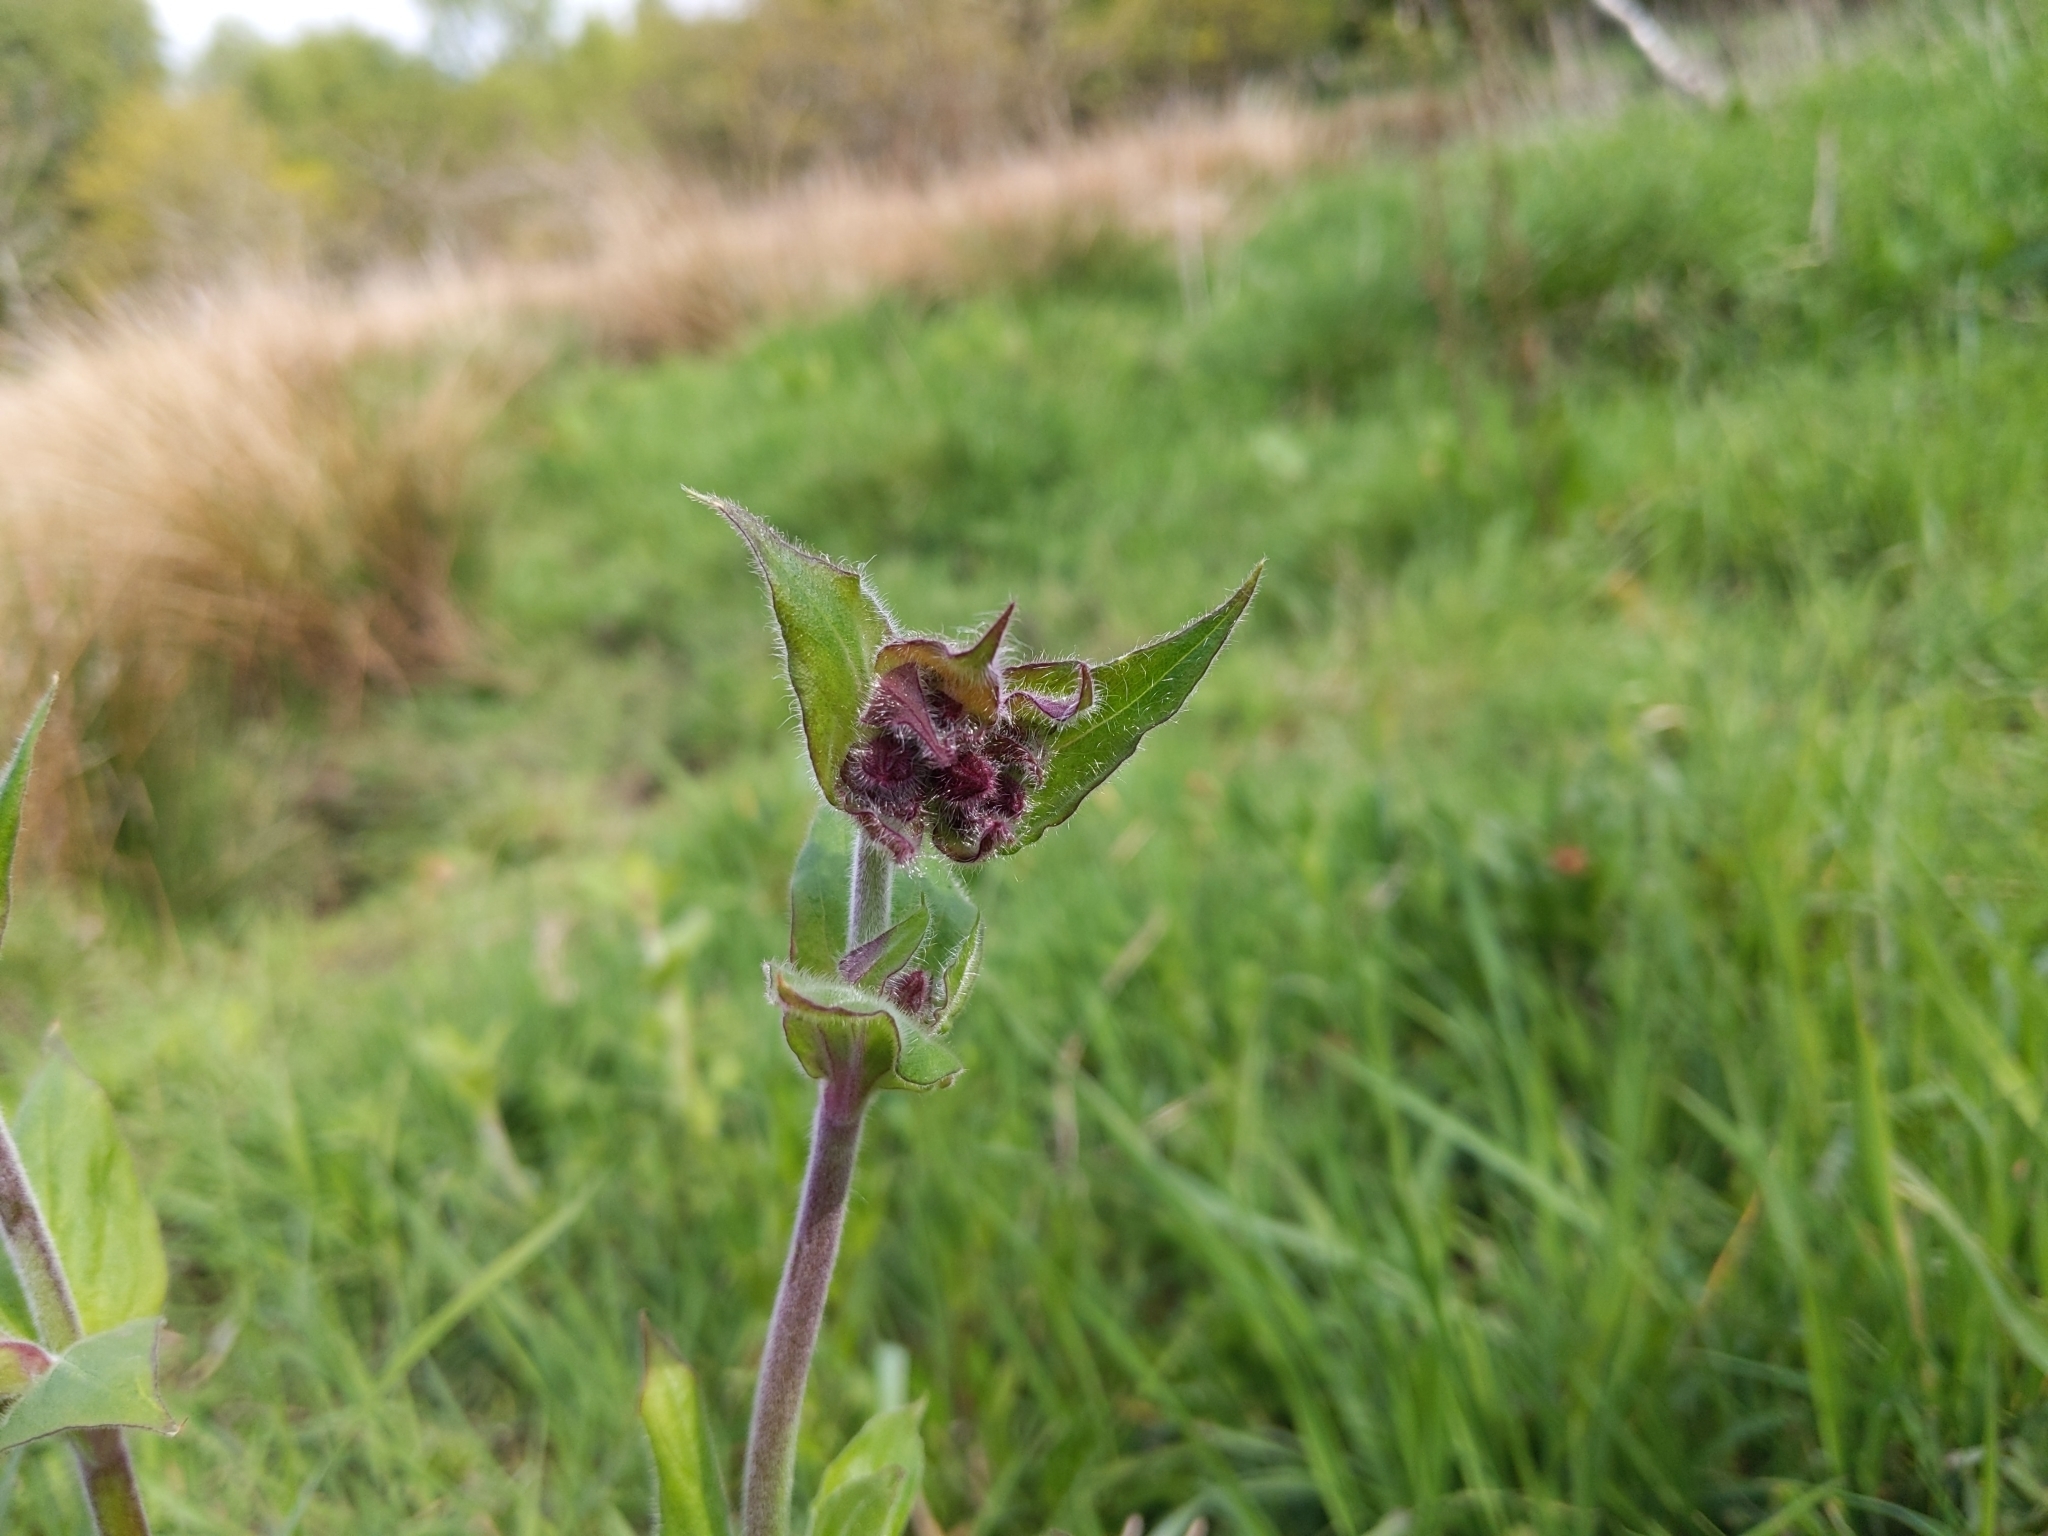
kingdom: Plantae
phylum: Tracheophyta
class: Magnoliopsida
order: Caryophyllales
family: Caryophyllaceae
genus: Silene
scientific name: Silene dioica
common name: Red campion
